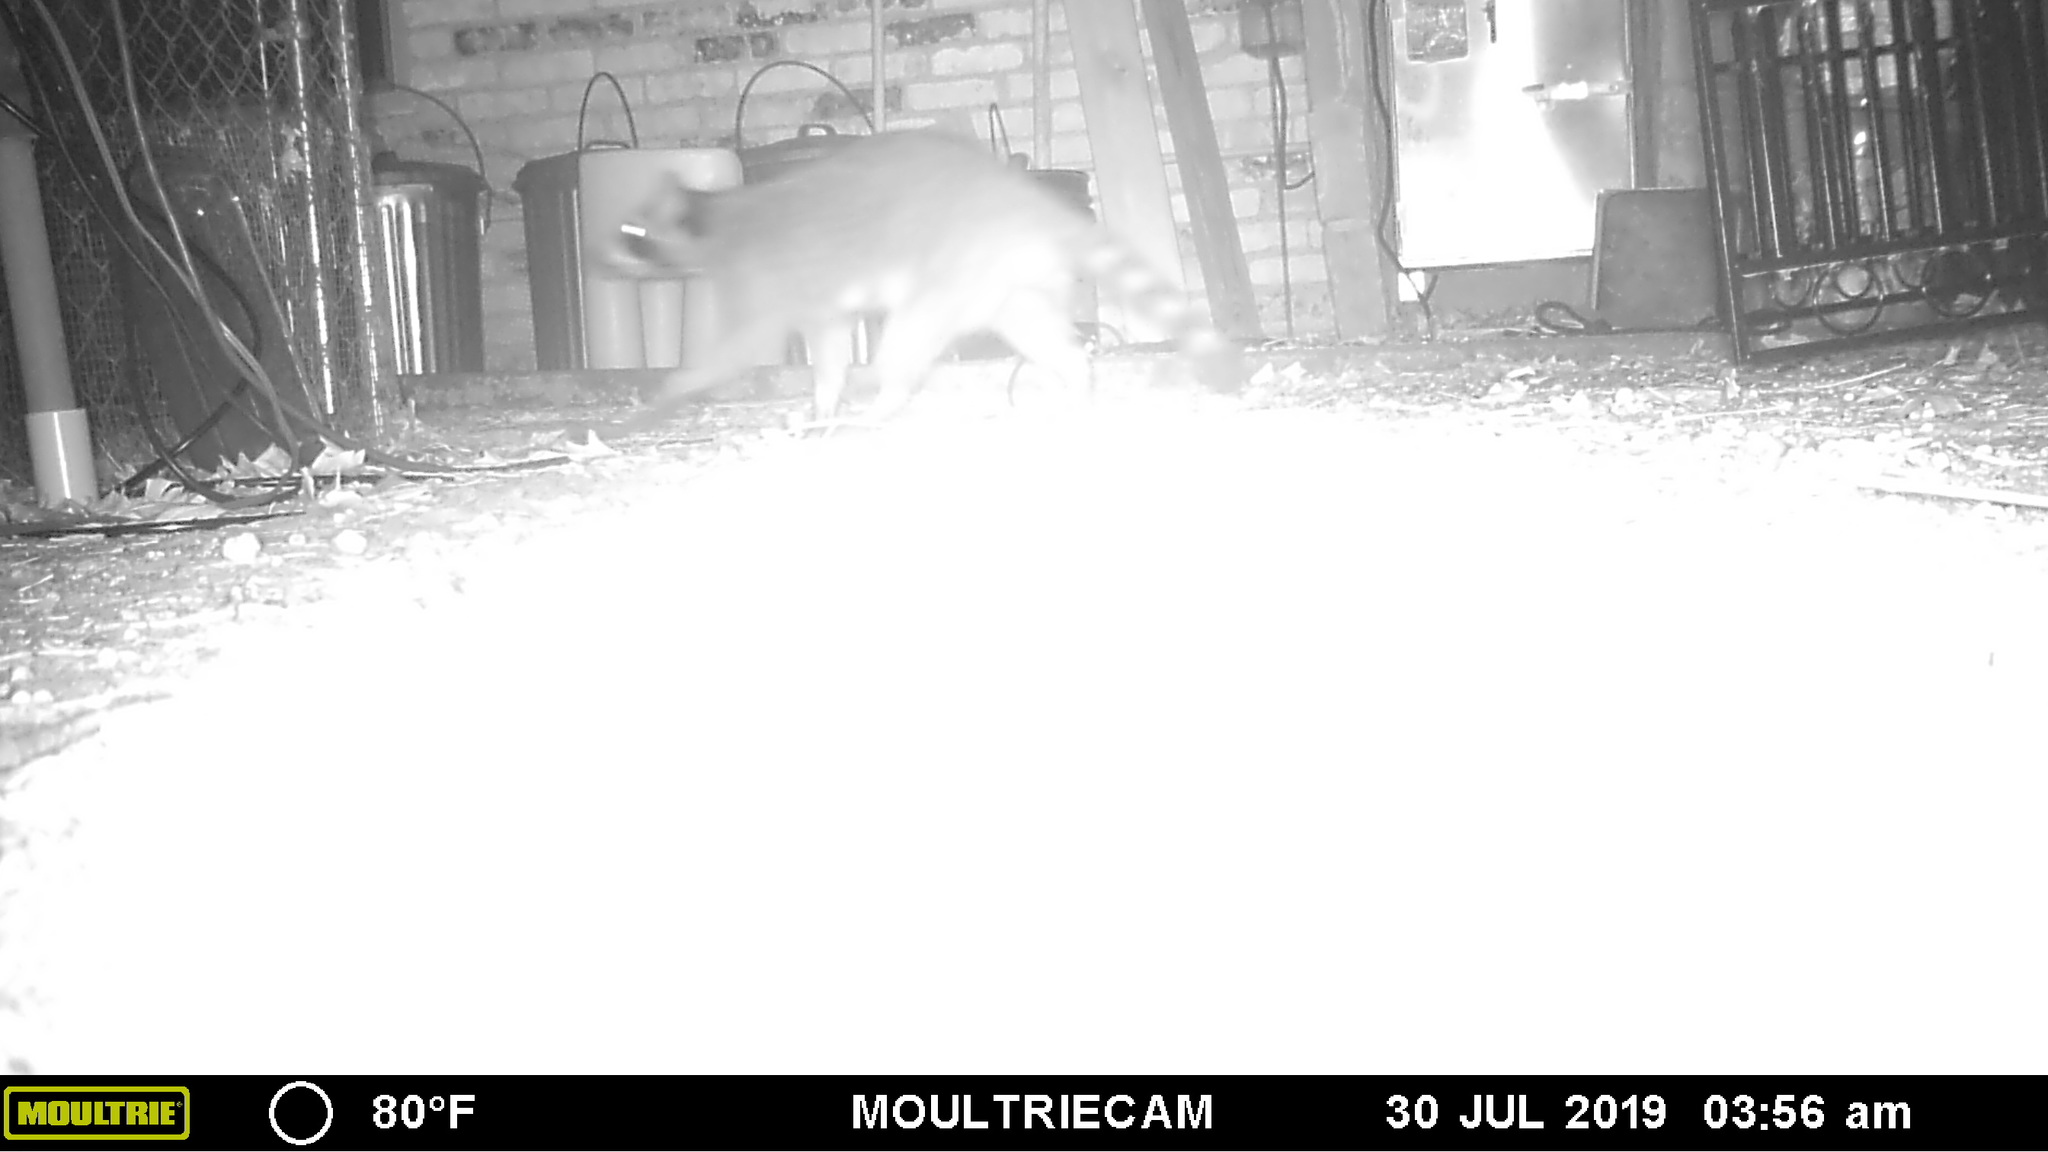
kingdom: Animalia
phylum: Chordata
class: Mammalia
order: Carnivora
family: Procyonidae
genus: Procyon
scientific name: Procyon lotor
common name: Raccoon
